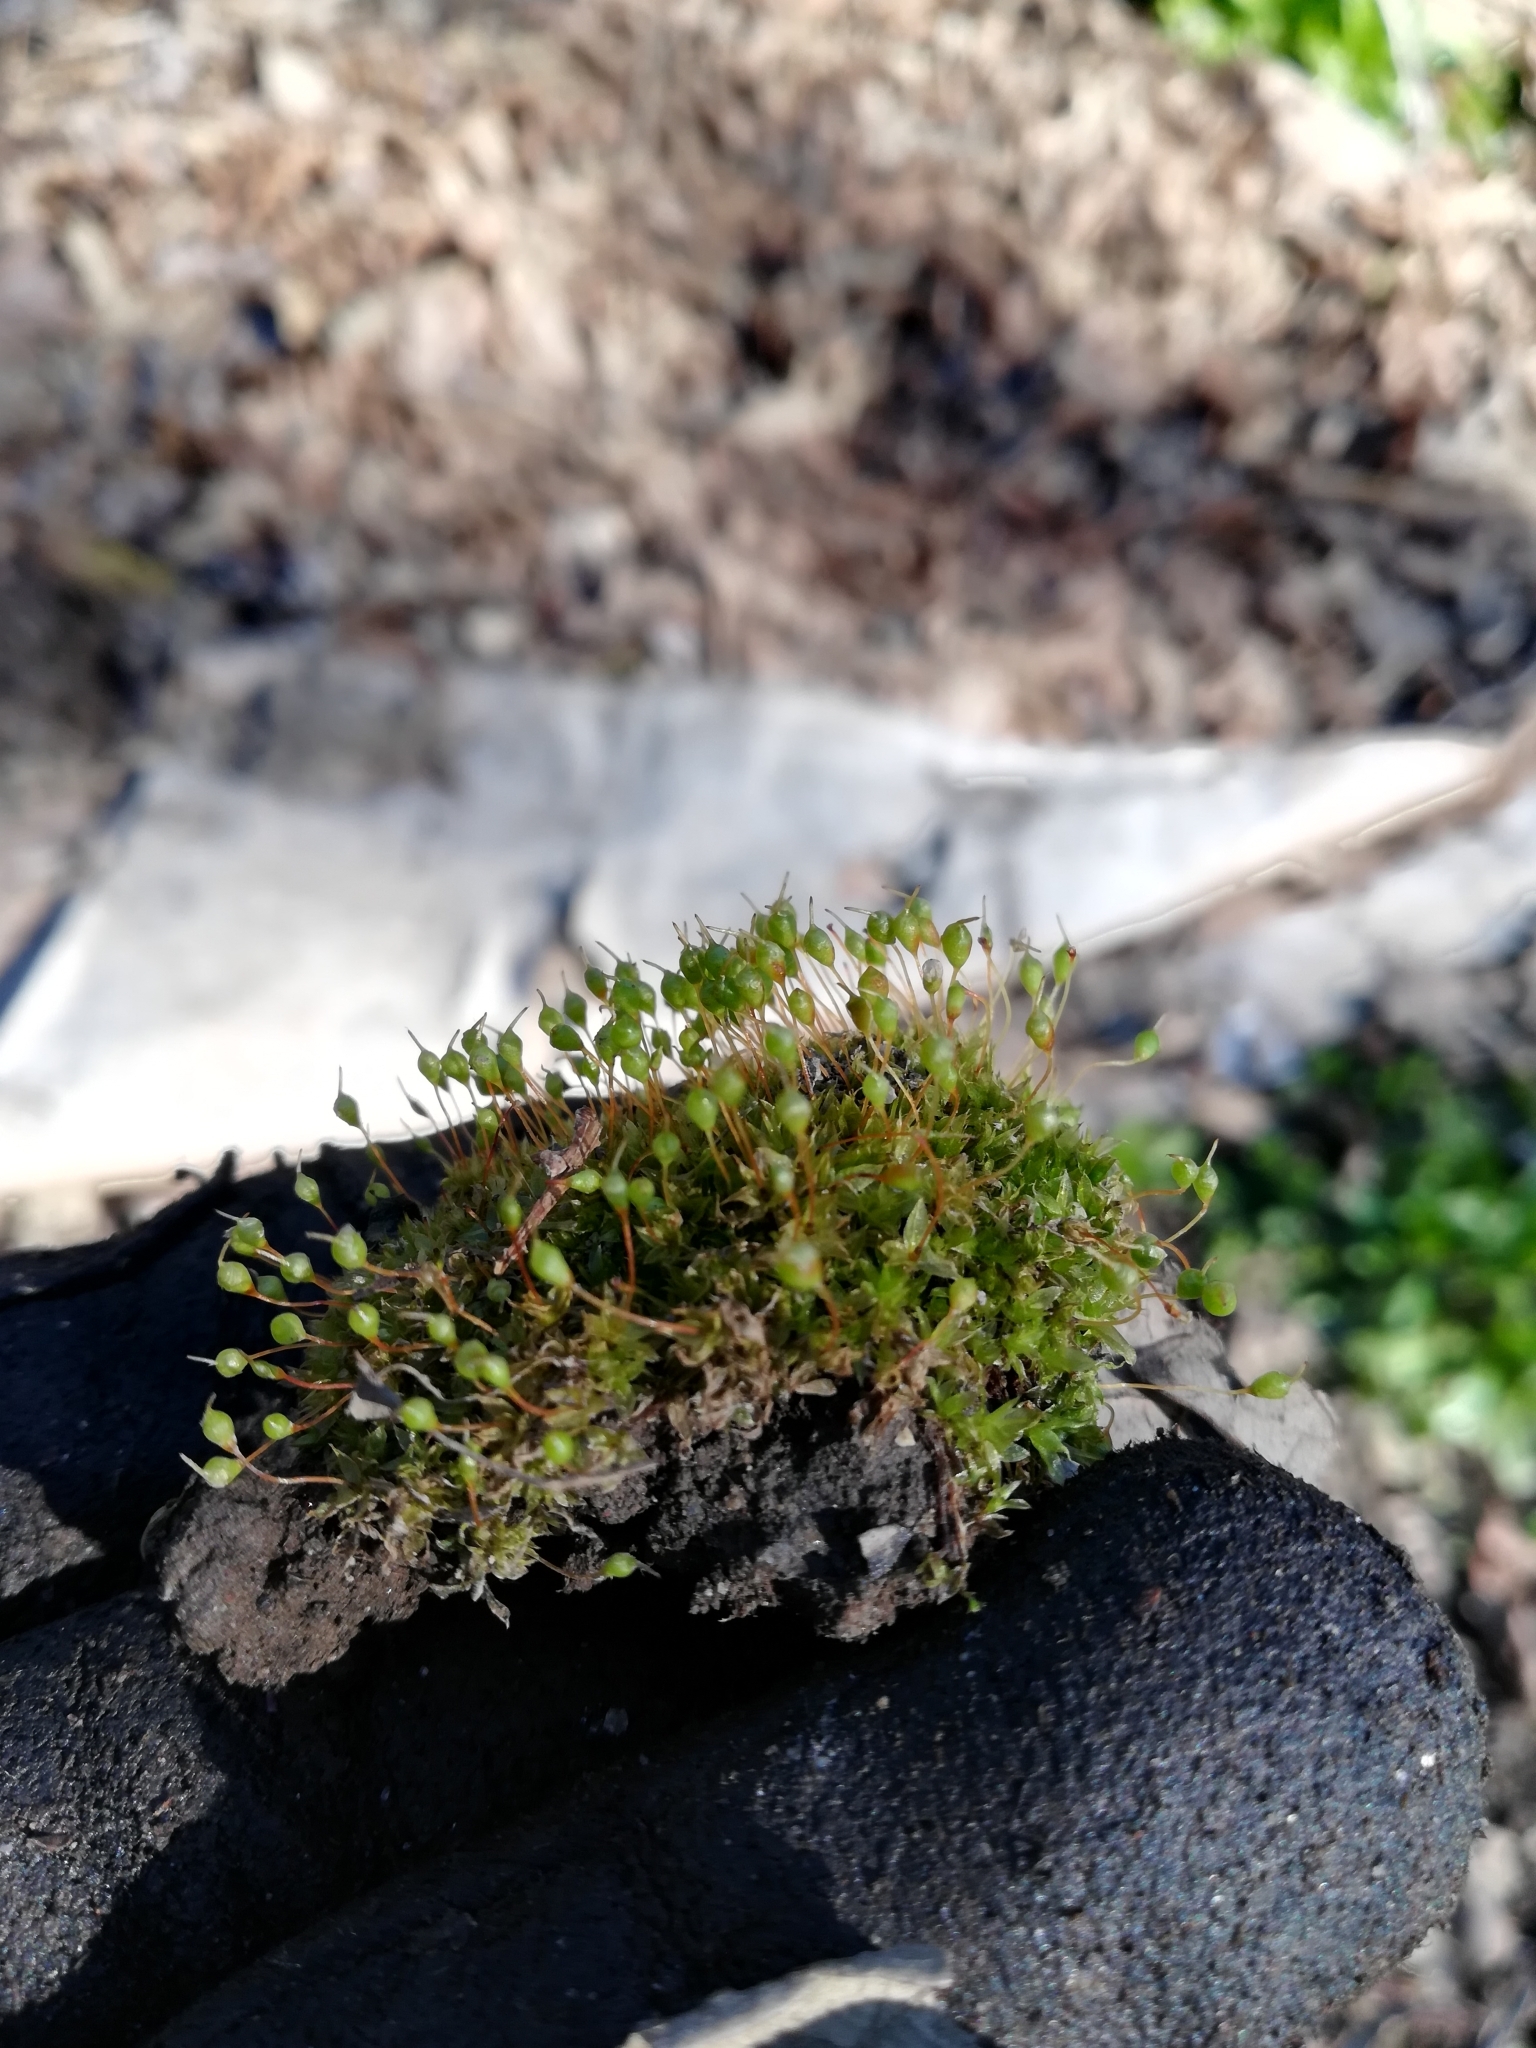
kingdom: Plantae
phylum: Bryophyta
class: Bryopsida
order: Funariales
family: Funariaceae
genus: Physcomitrium
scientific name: Physcomitrium pyriforme
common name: Common bladder-moss
